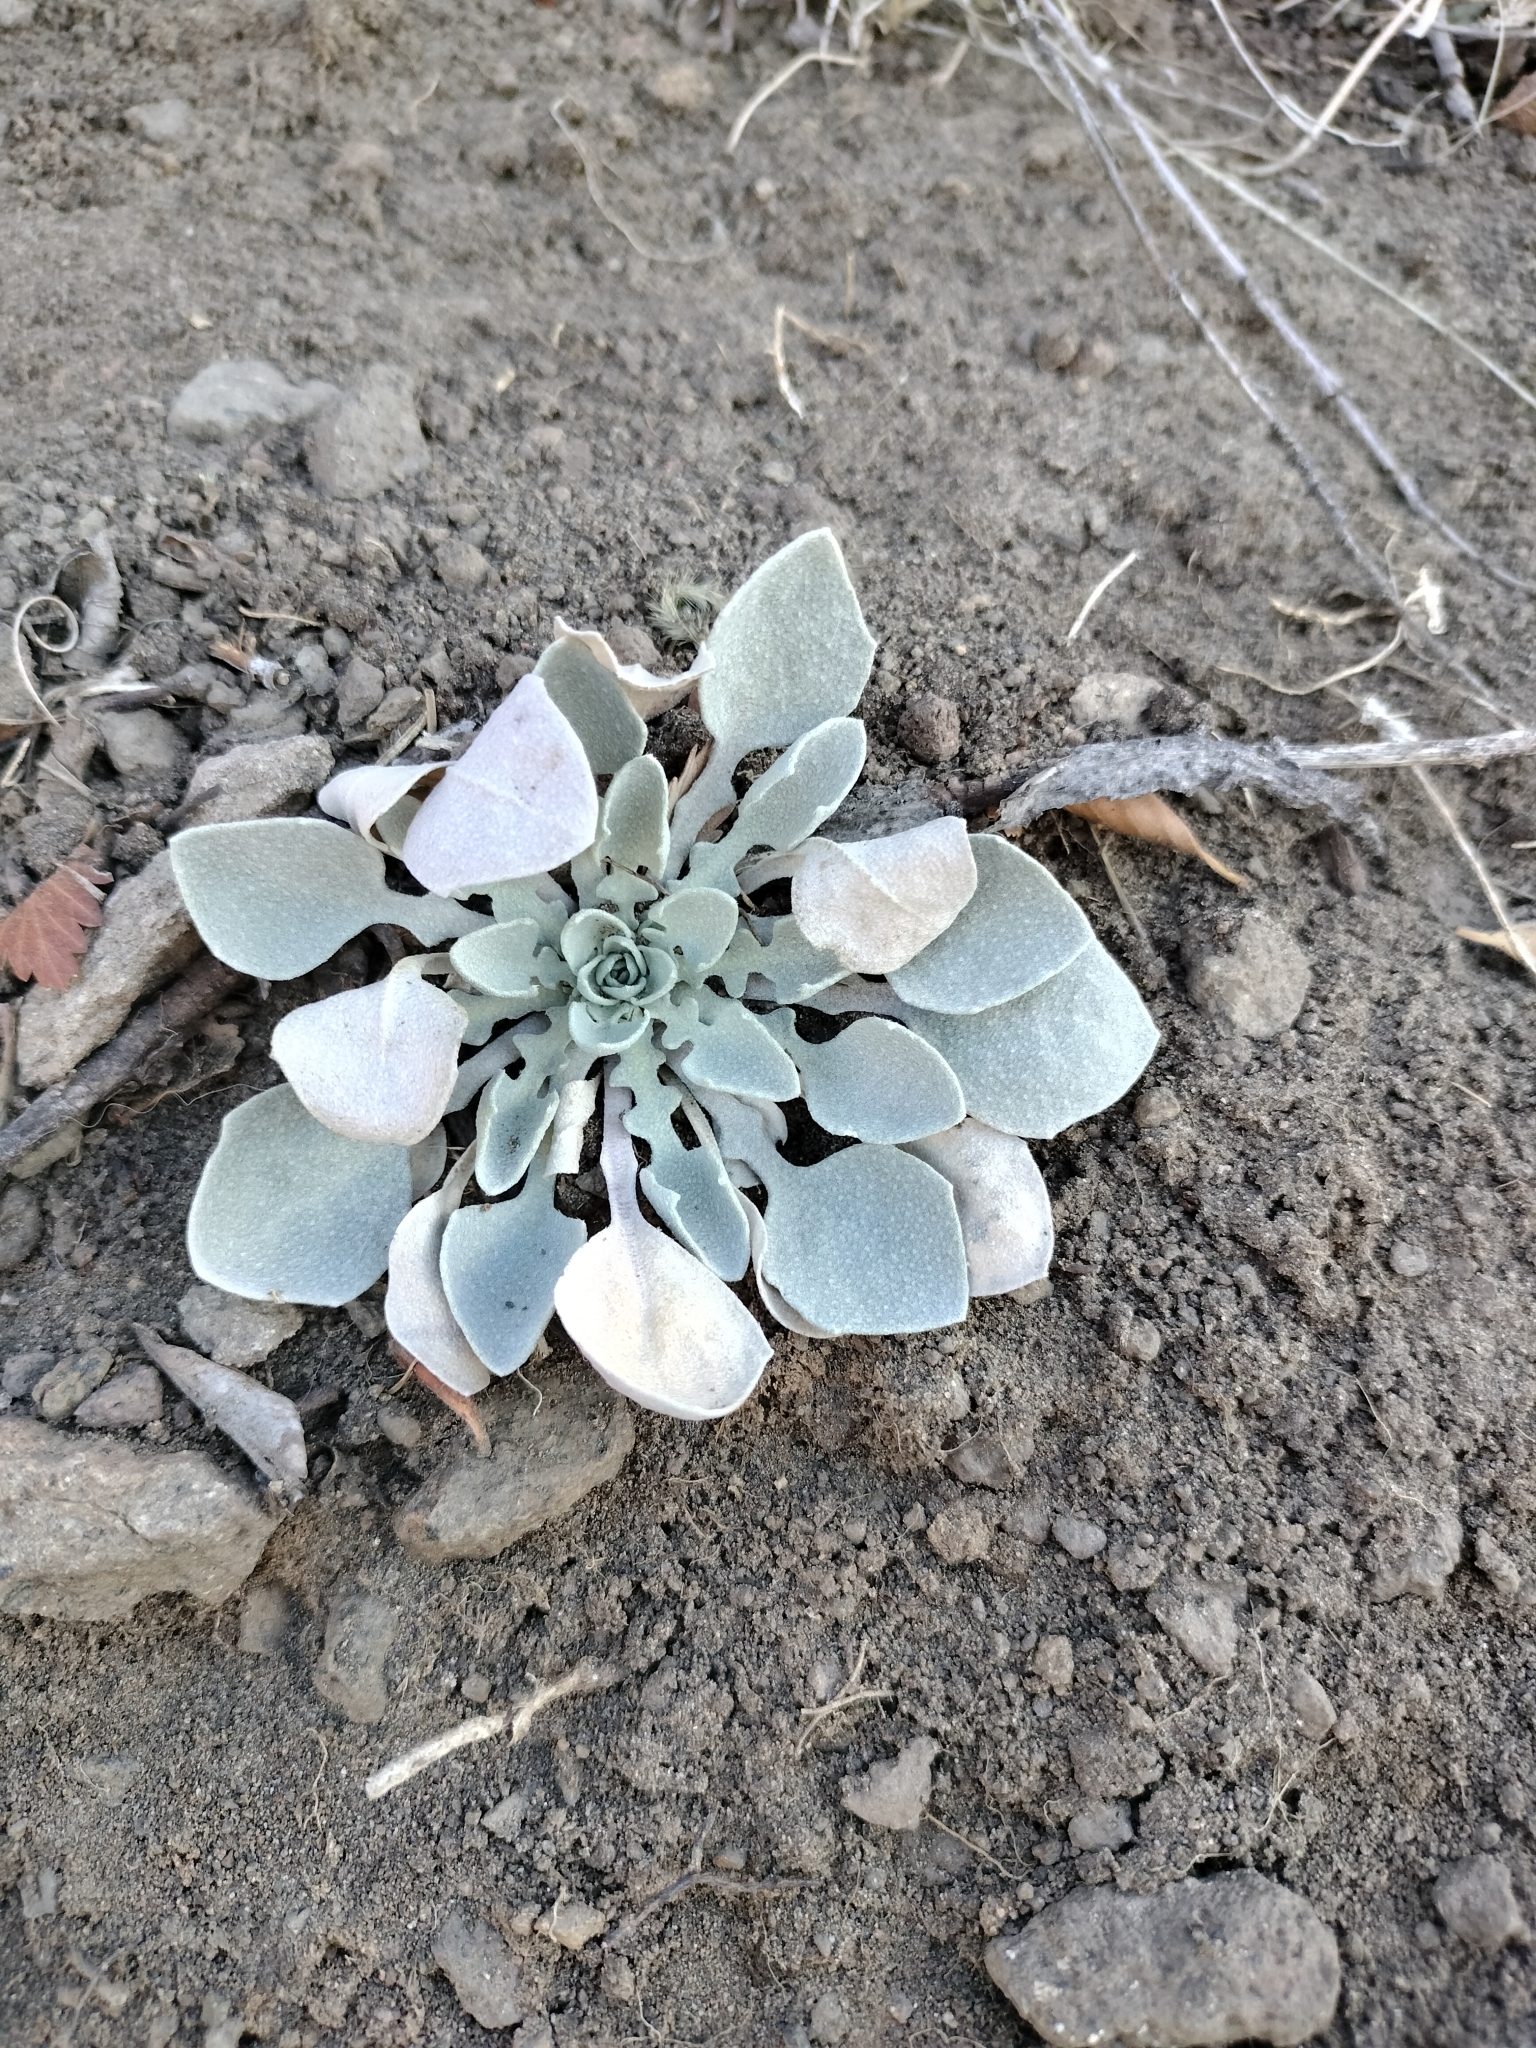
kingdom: Plantae
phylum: Tracheophyta
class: Magnoliopsida
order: Brassicales
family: Brassicaceae
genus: Physaria
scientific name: Physaria vitulifera
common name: Roundtrip twinpod
